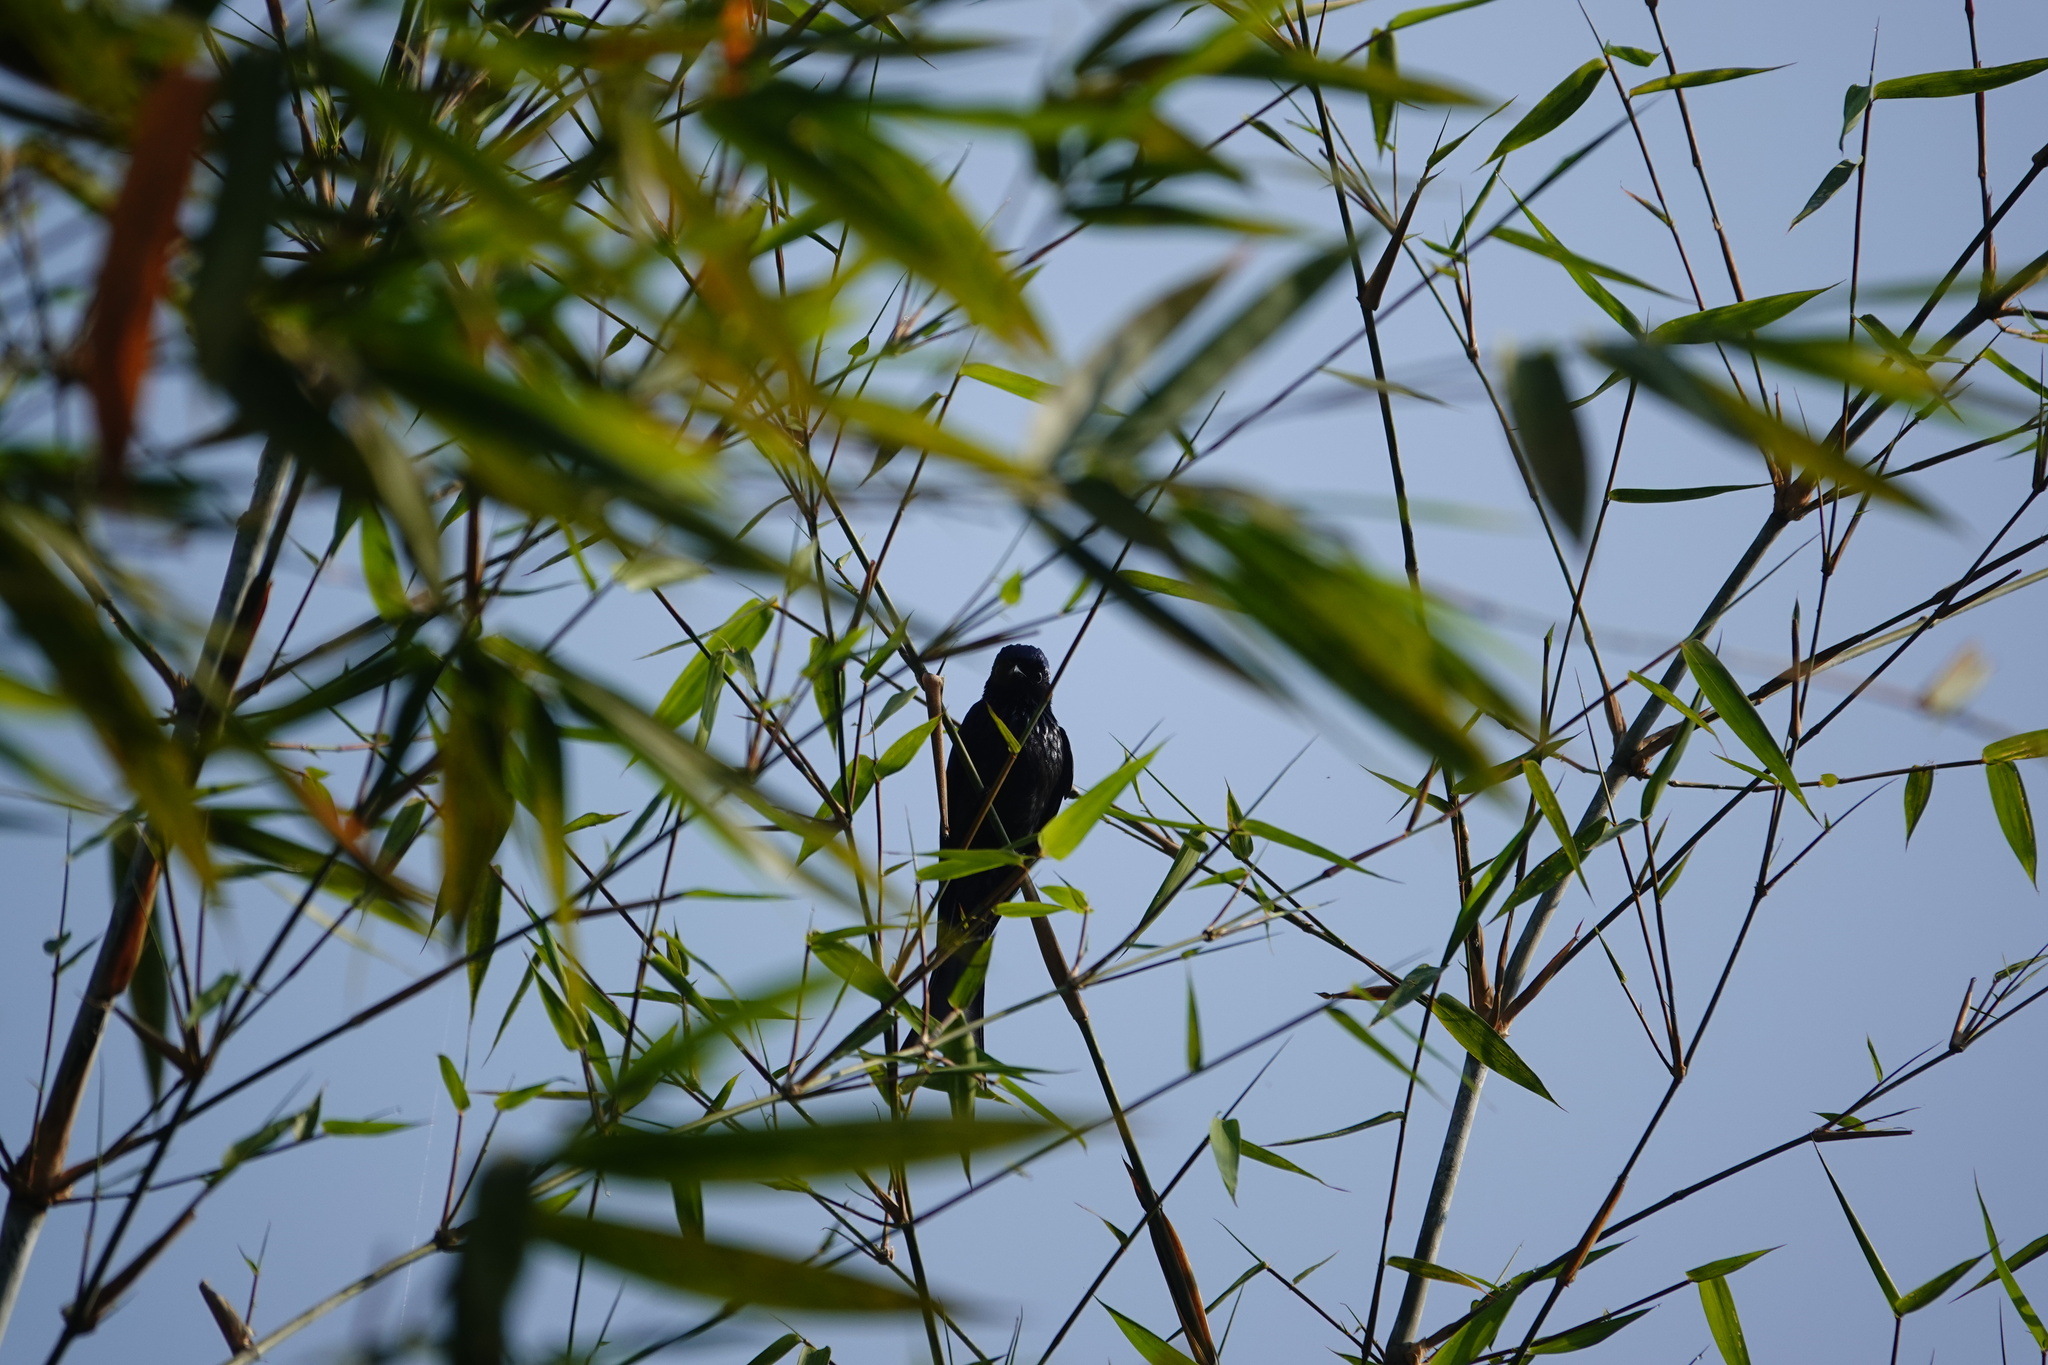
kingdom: Animalia
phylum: Chordata
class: Aves
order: Passeriformes
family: Dicruridae
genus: Dicrurus
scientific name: Dicrurus aeneus
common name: Bronzed drongo
